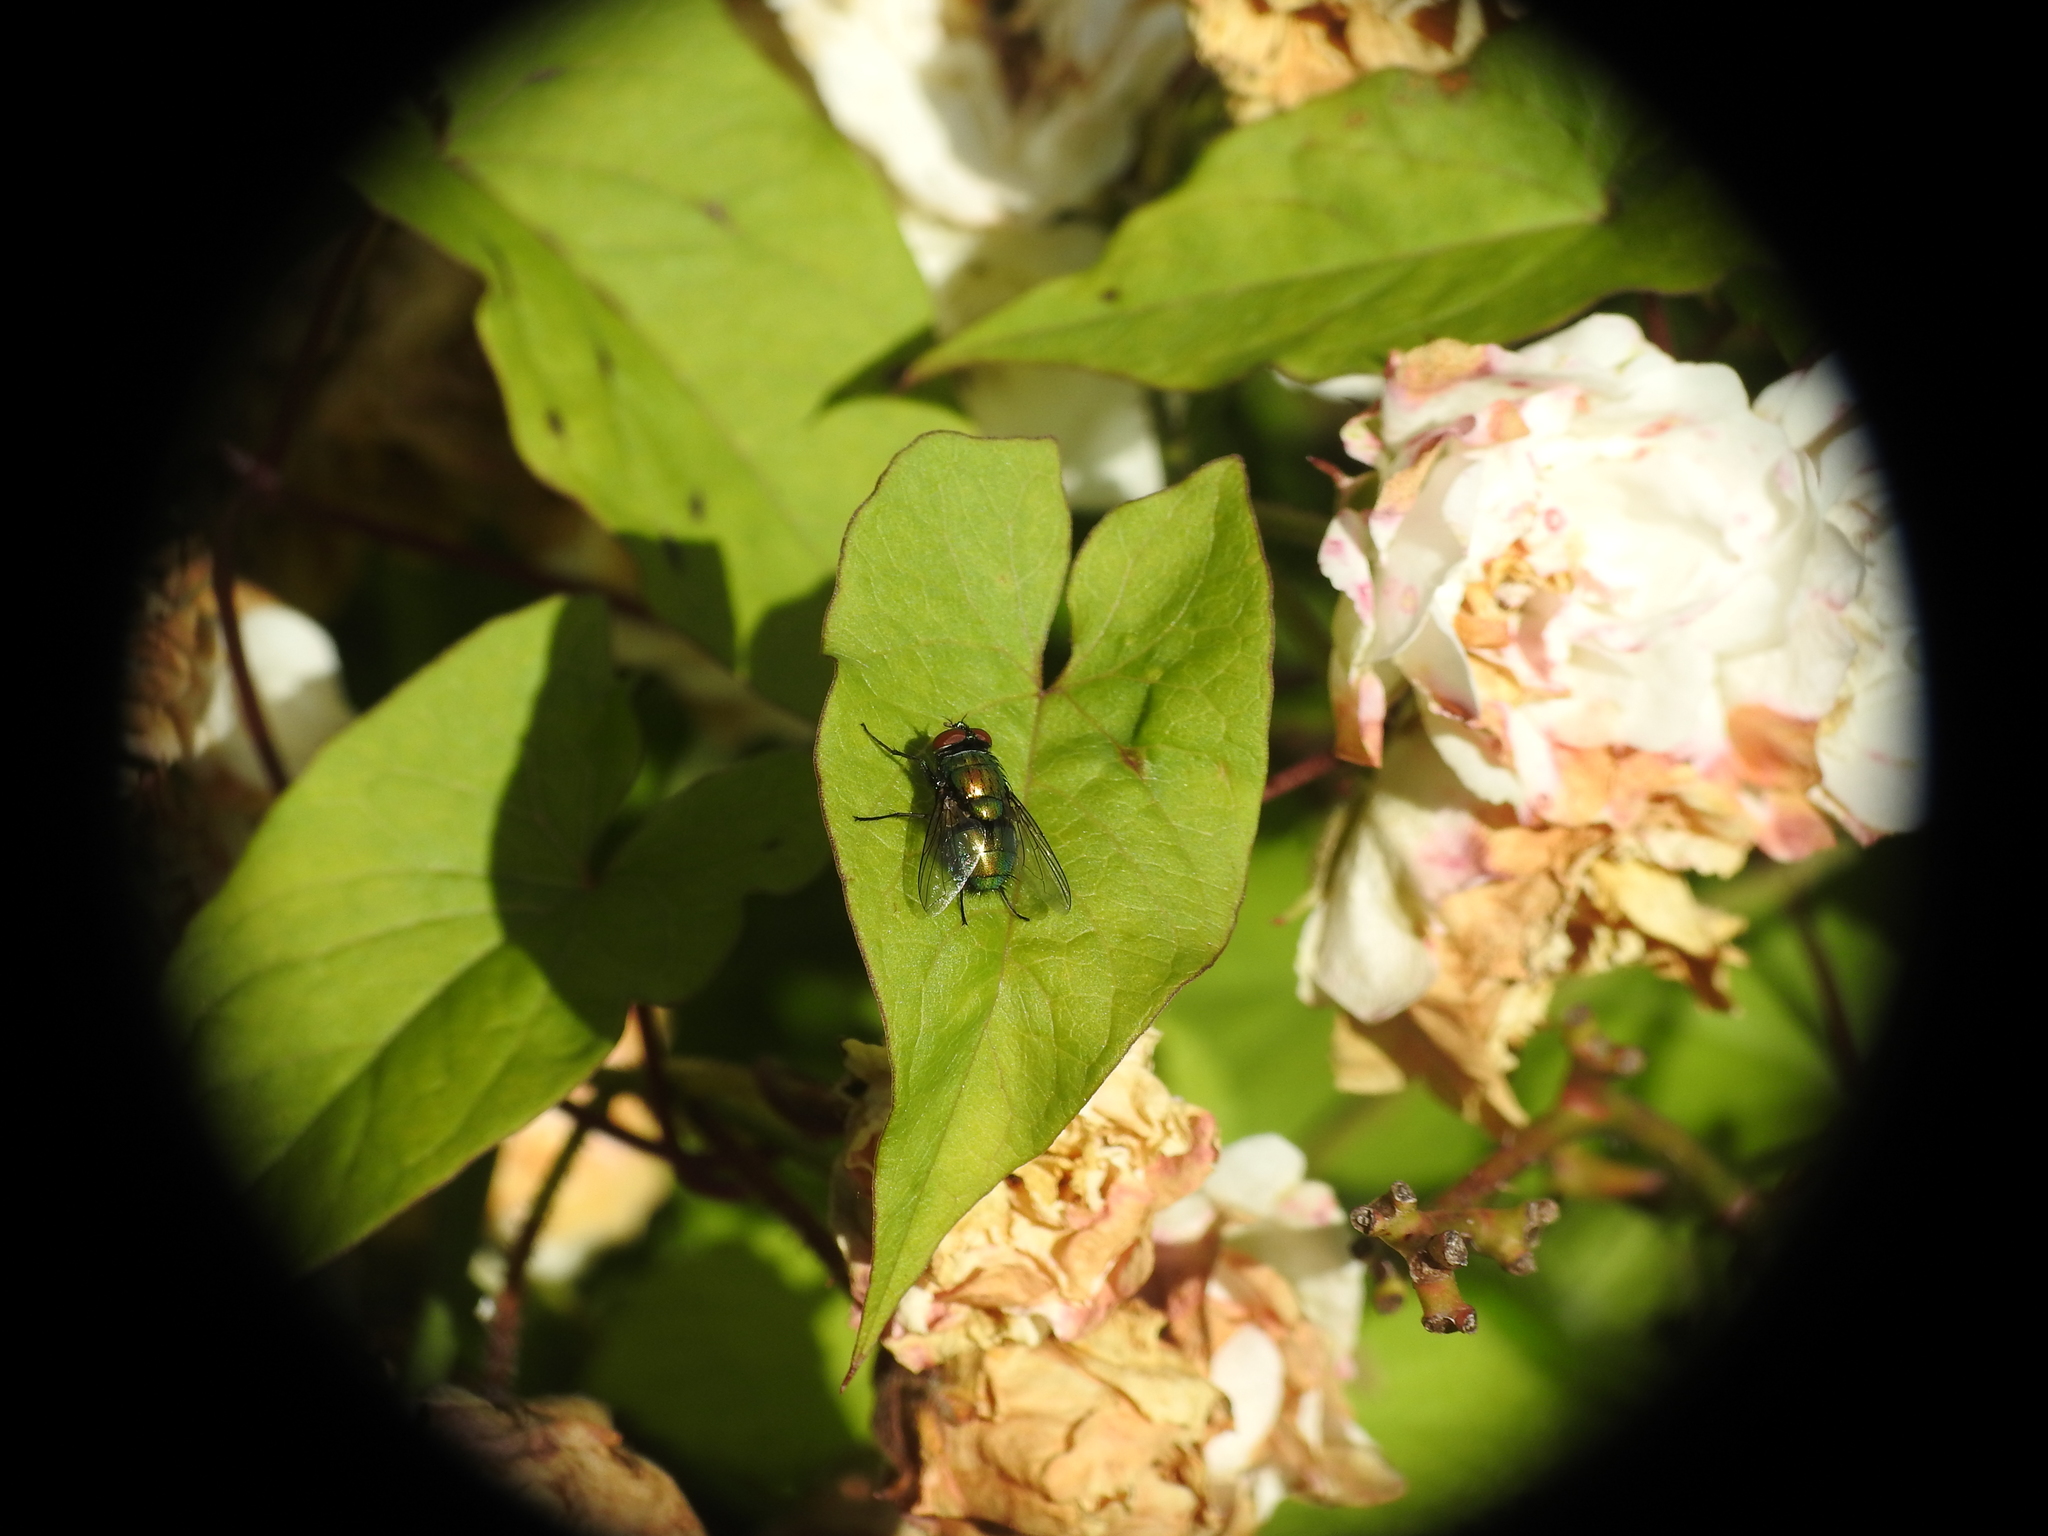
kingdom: Animalia
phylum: Arthropoda
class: Insecta
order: Diptera
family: Calliphoridae
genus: Lucilia
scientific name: Lucilia sericata
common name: Blow fly
